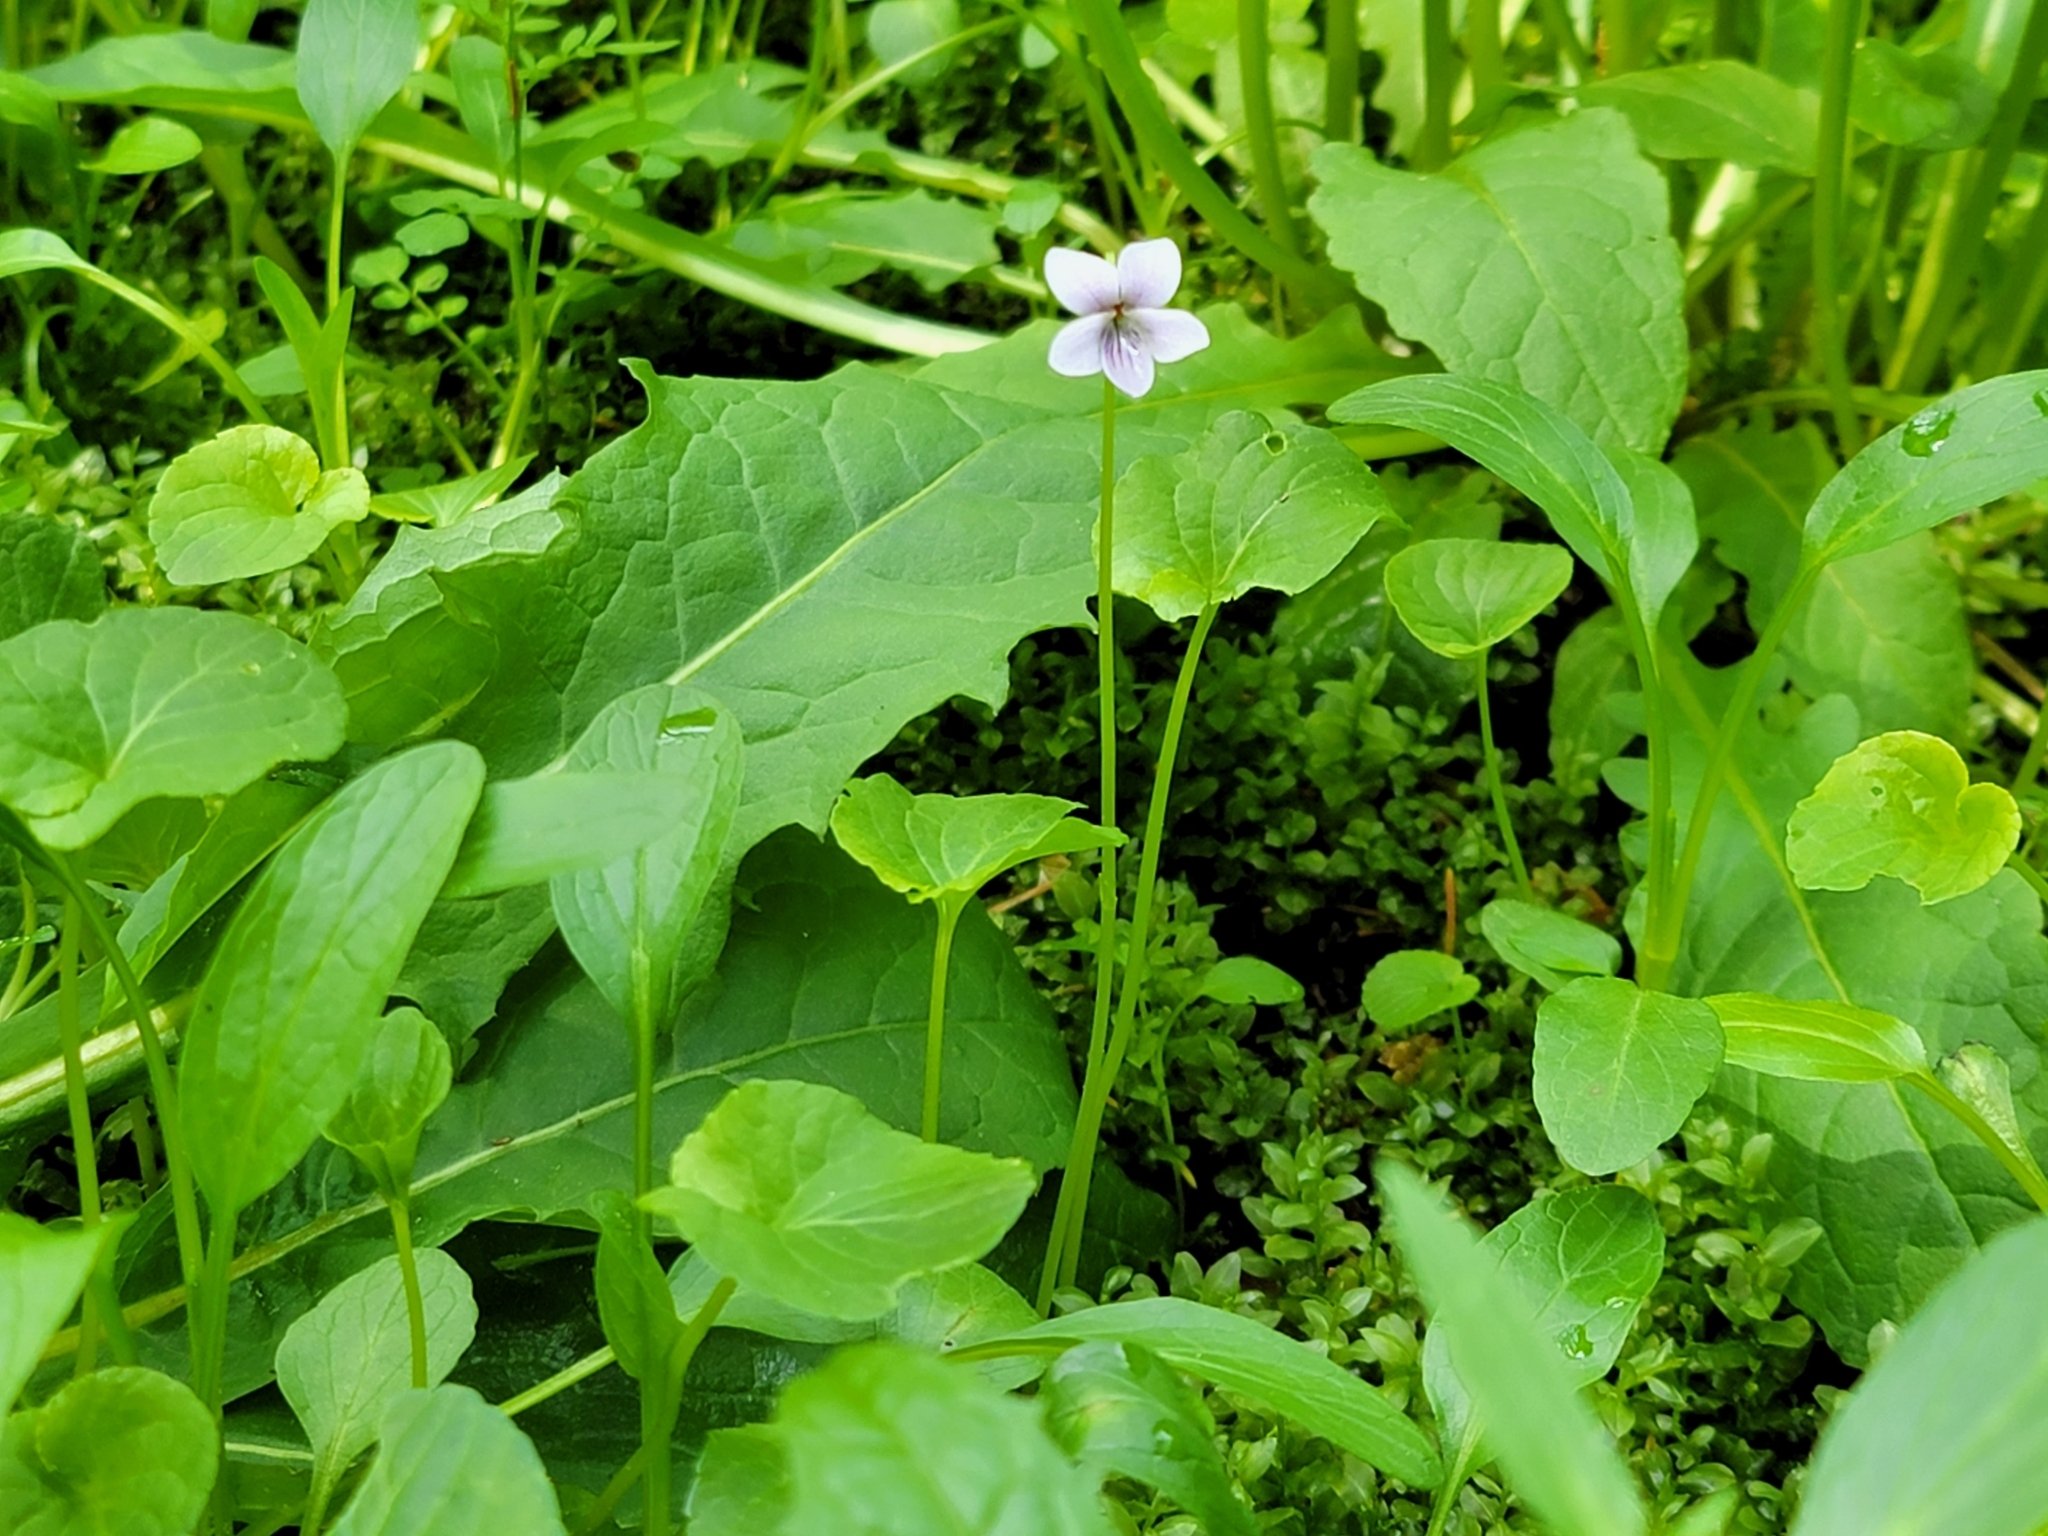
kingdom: Plantae
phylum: Tracheophyta
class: Magnoliopsida
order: Malpighiales
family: Violaceae
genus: Viola
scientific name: Viola palustris
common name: Marsh violet
